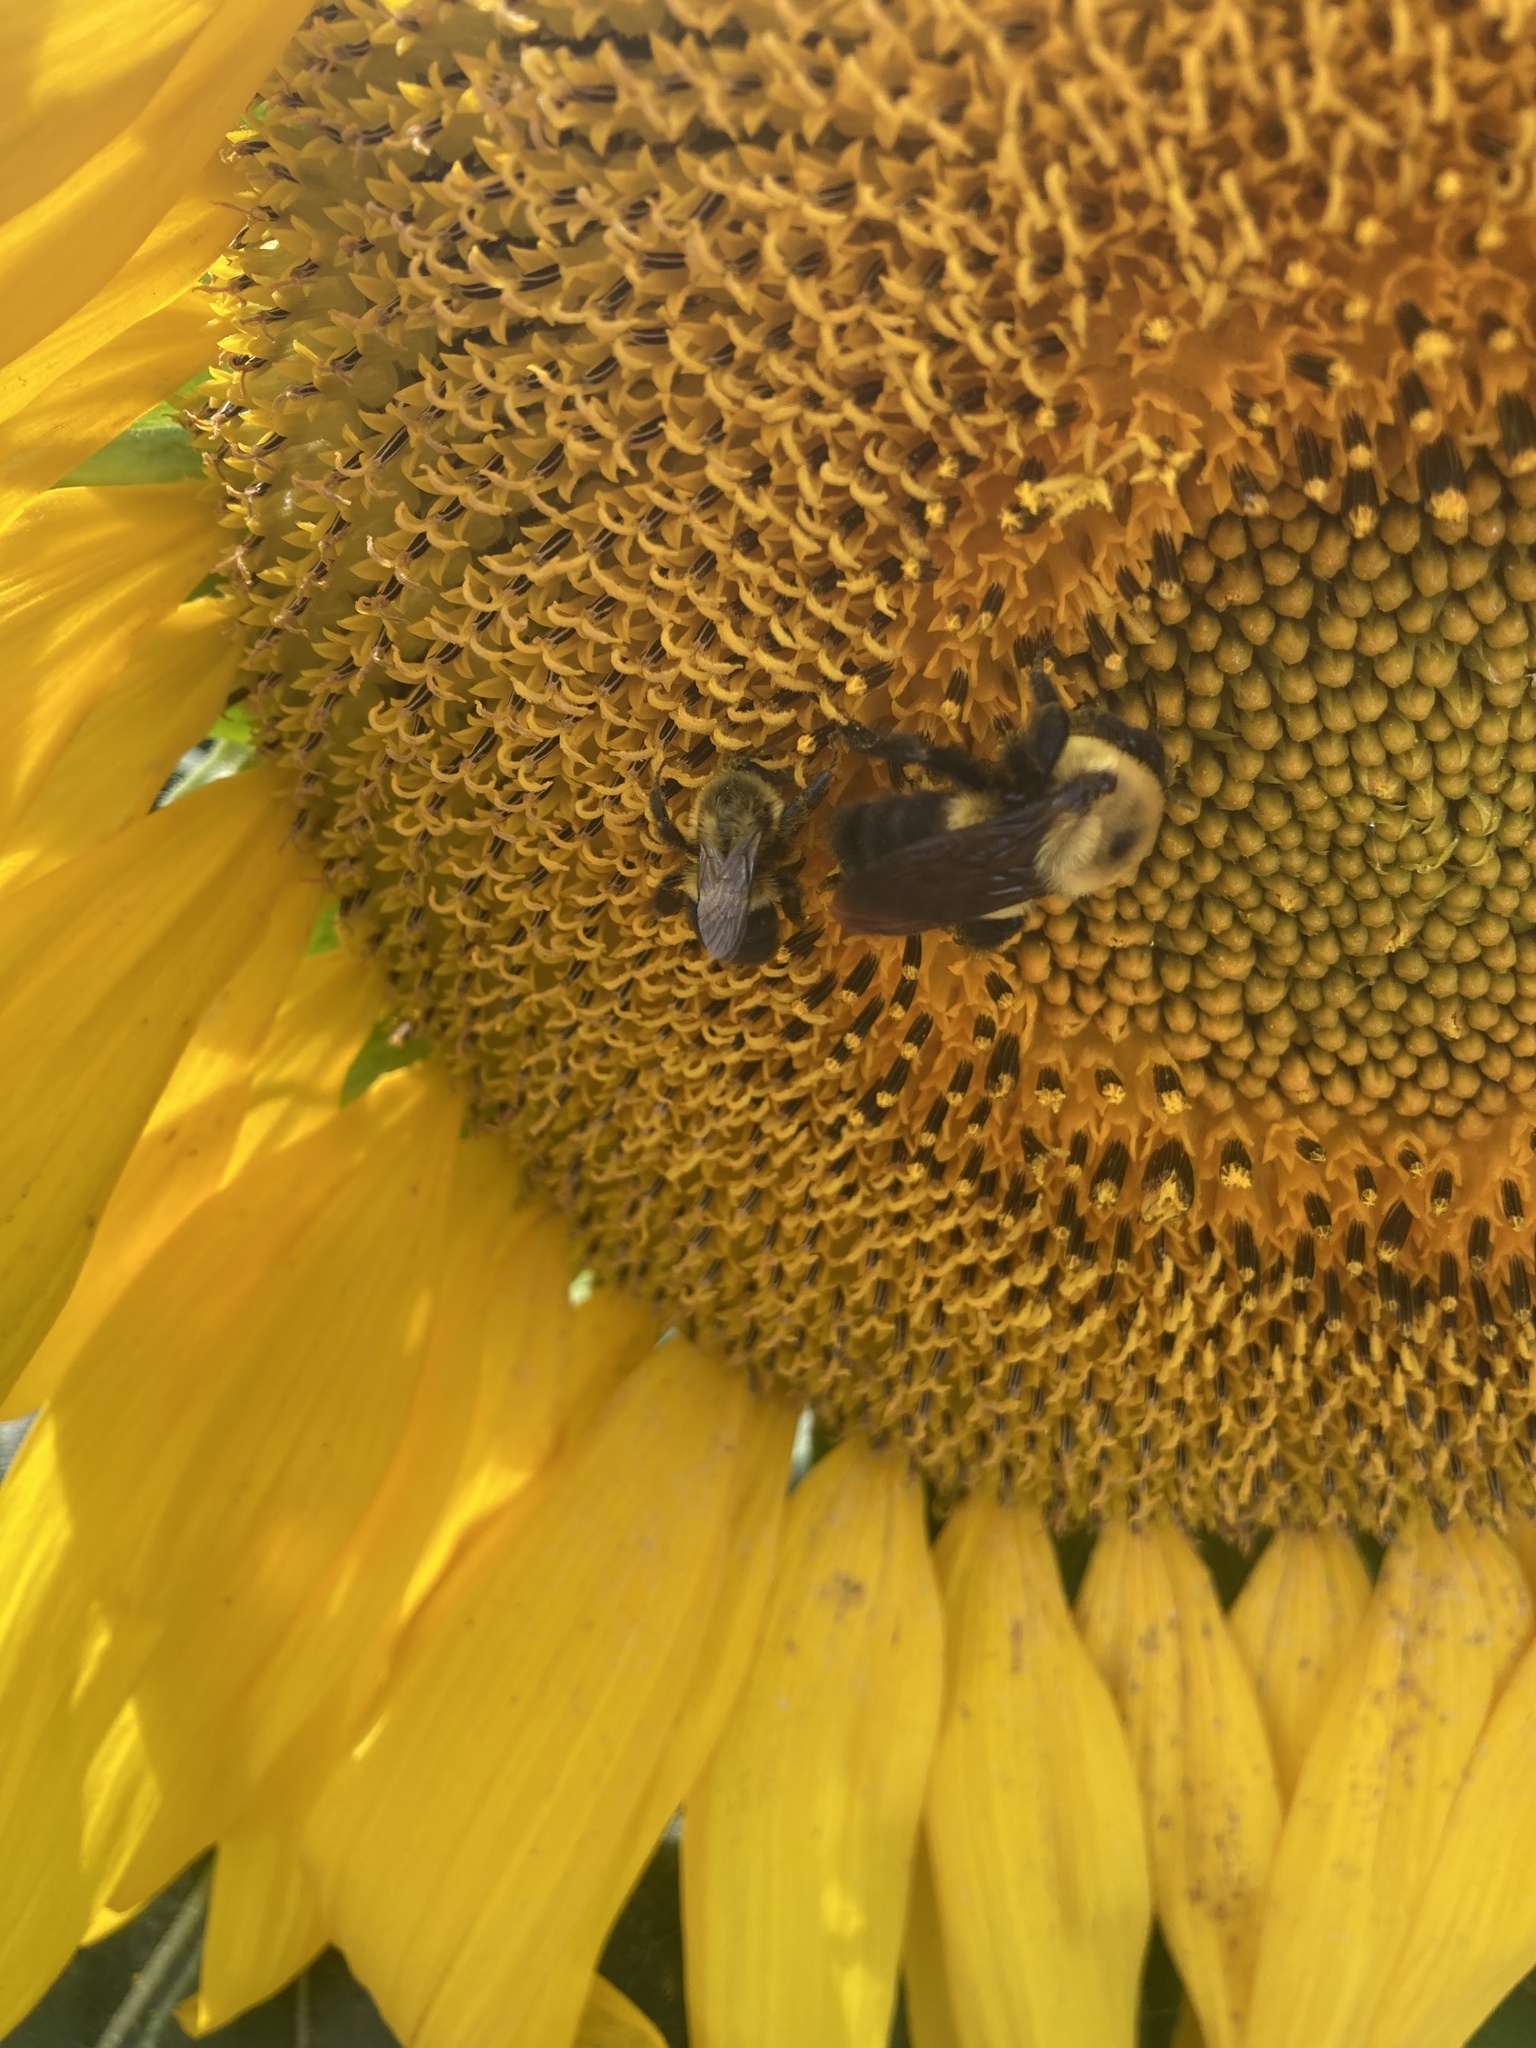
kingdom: Animalia
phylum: Arthropoda
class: Insecta
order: Hymenoptera
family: Apidae
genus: Bombus
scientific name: Bombus griseocollis
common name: Brown-belted bumble bee
